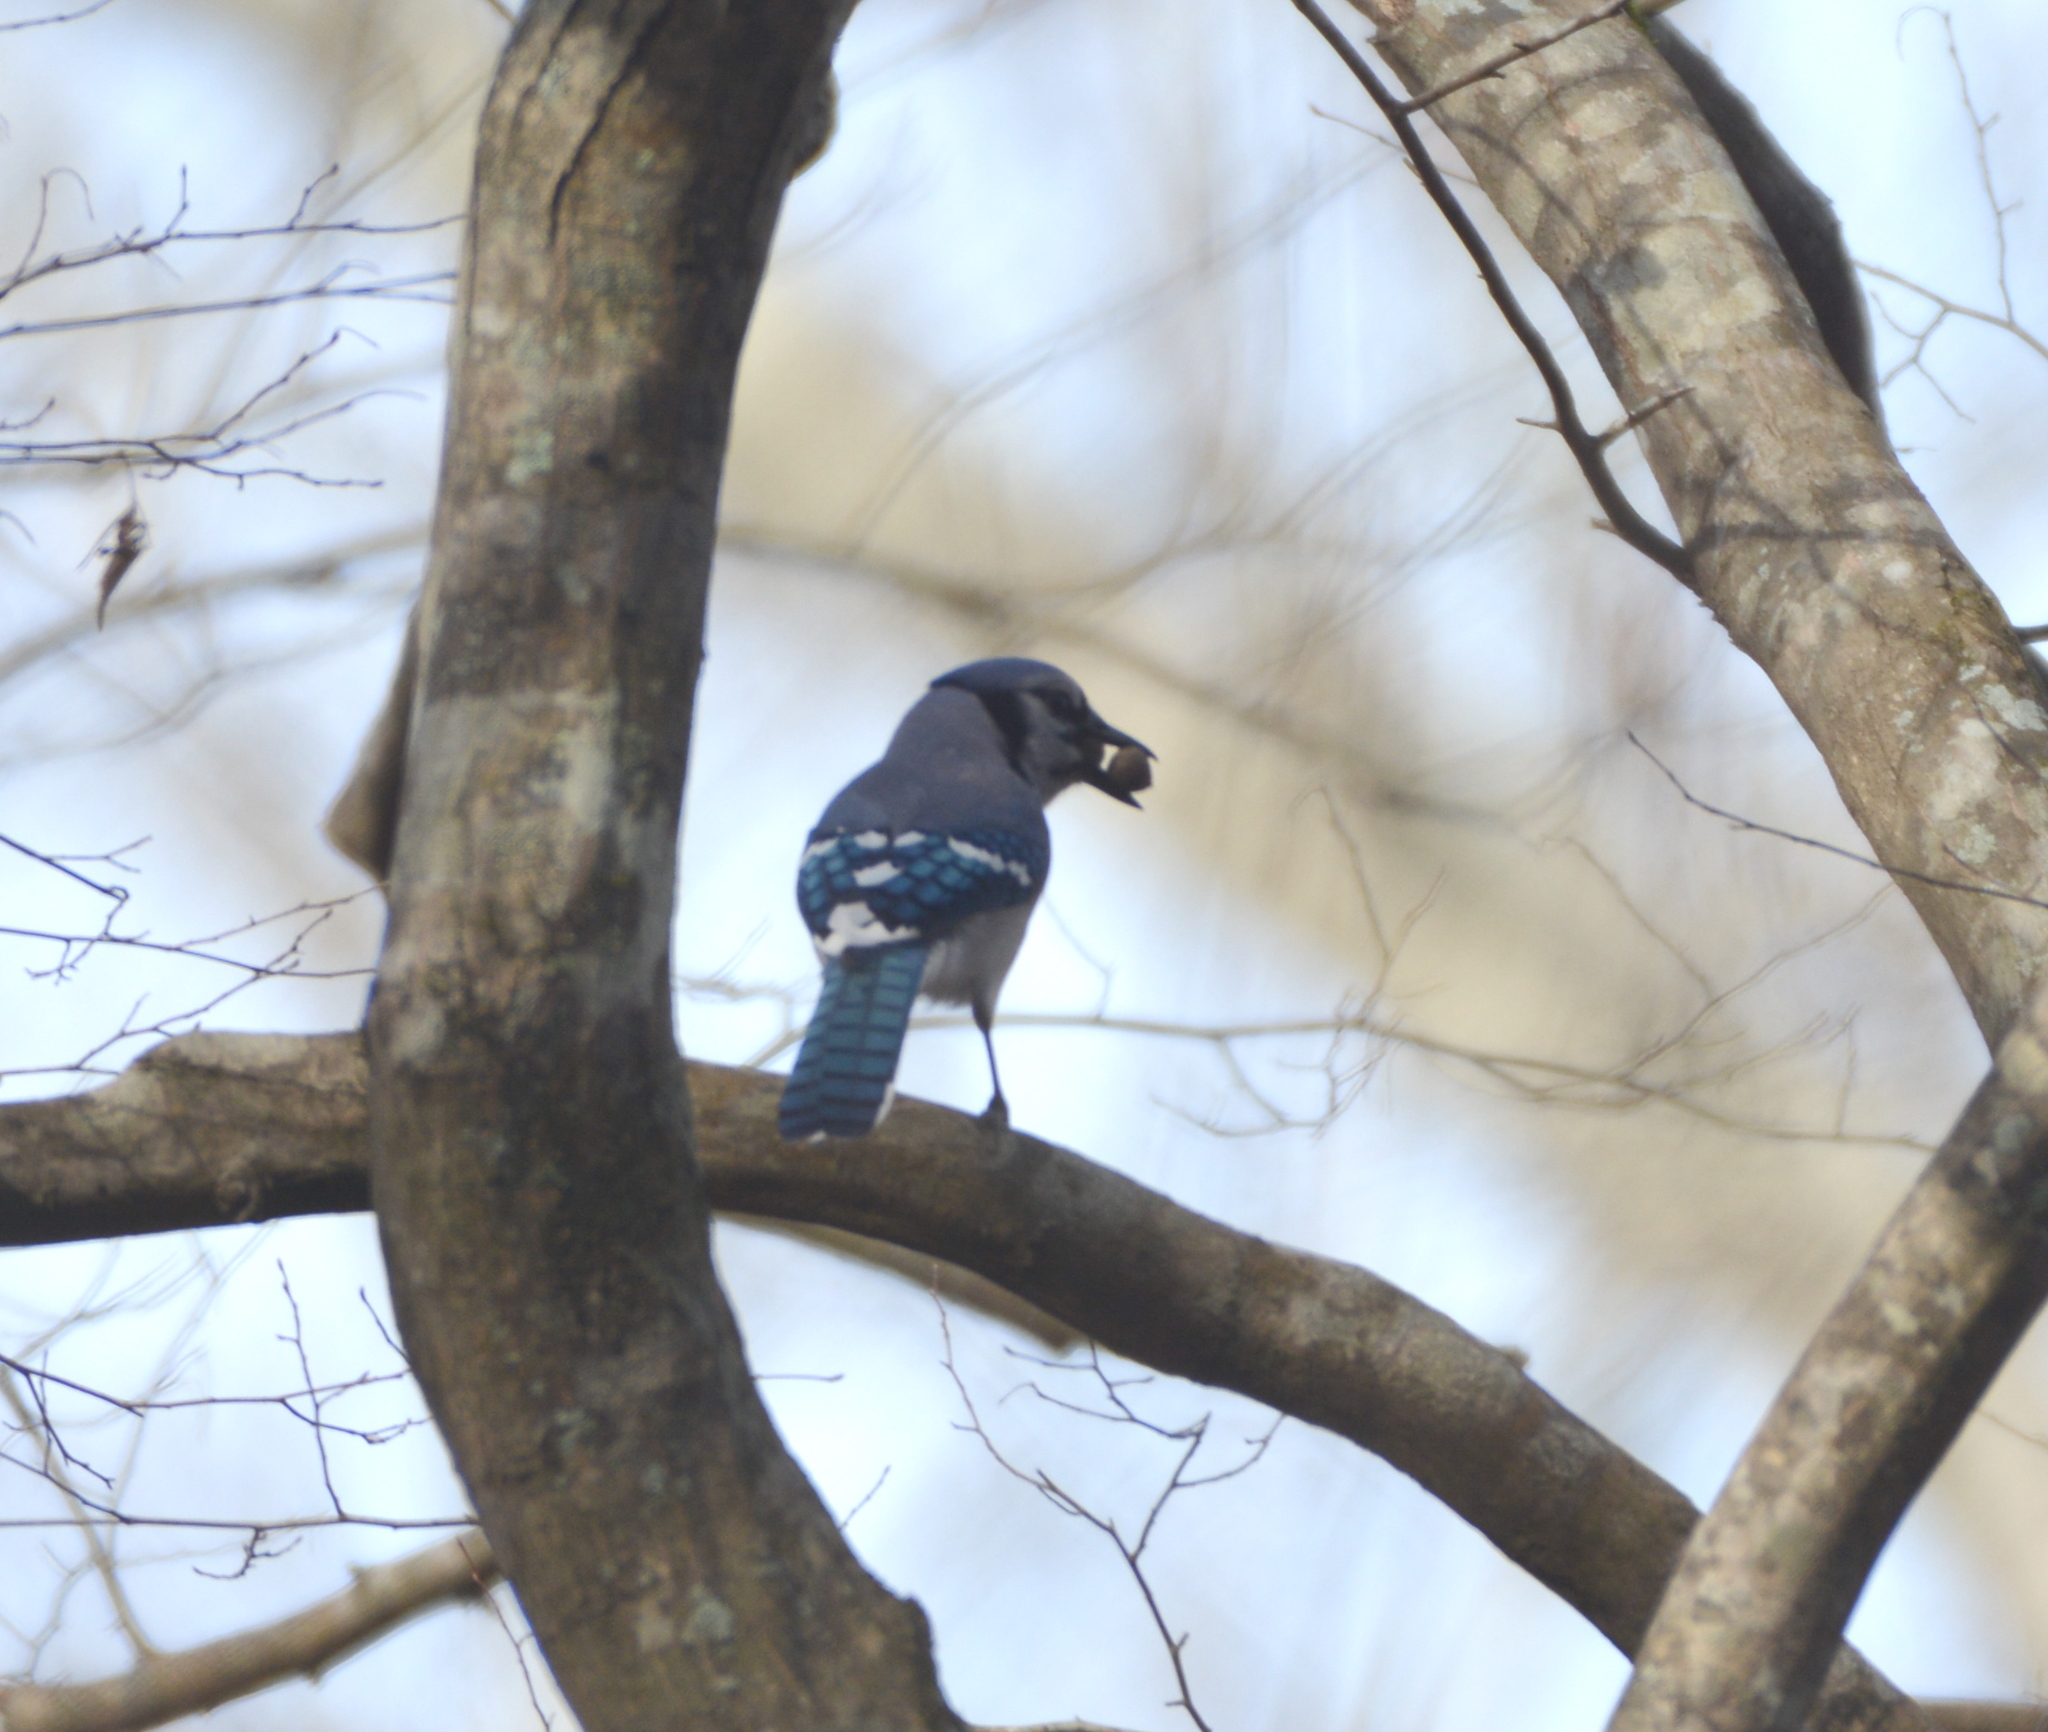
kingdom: Animalia
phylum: Chordata
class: Aves
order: Passeriformes
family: Corvidae
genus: Cyanocitta
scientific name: Cyanocitta cristata
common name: Blue jay
